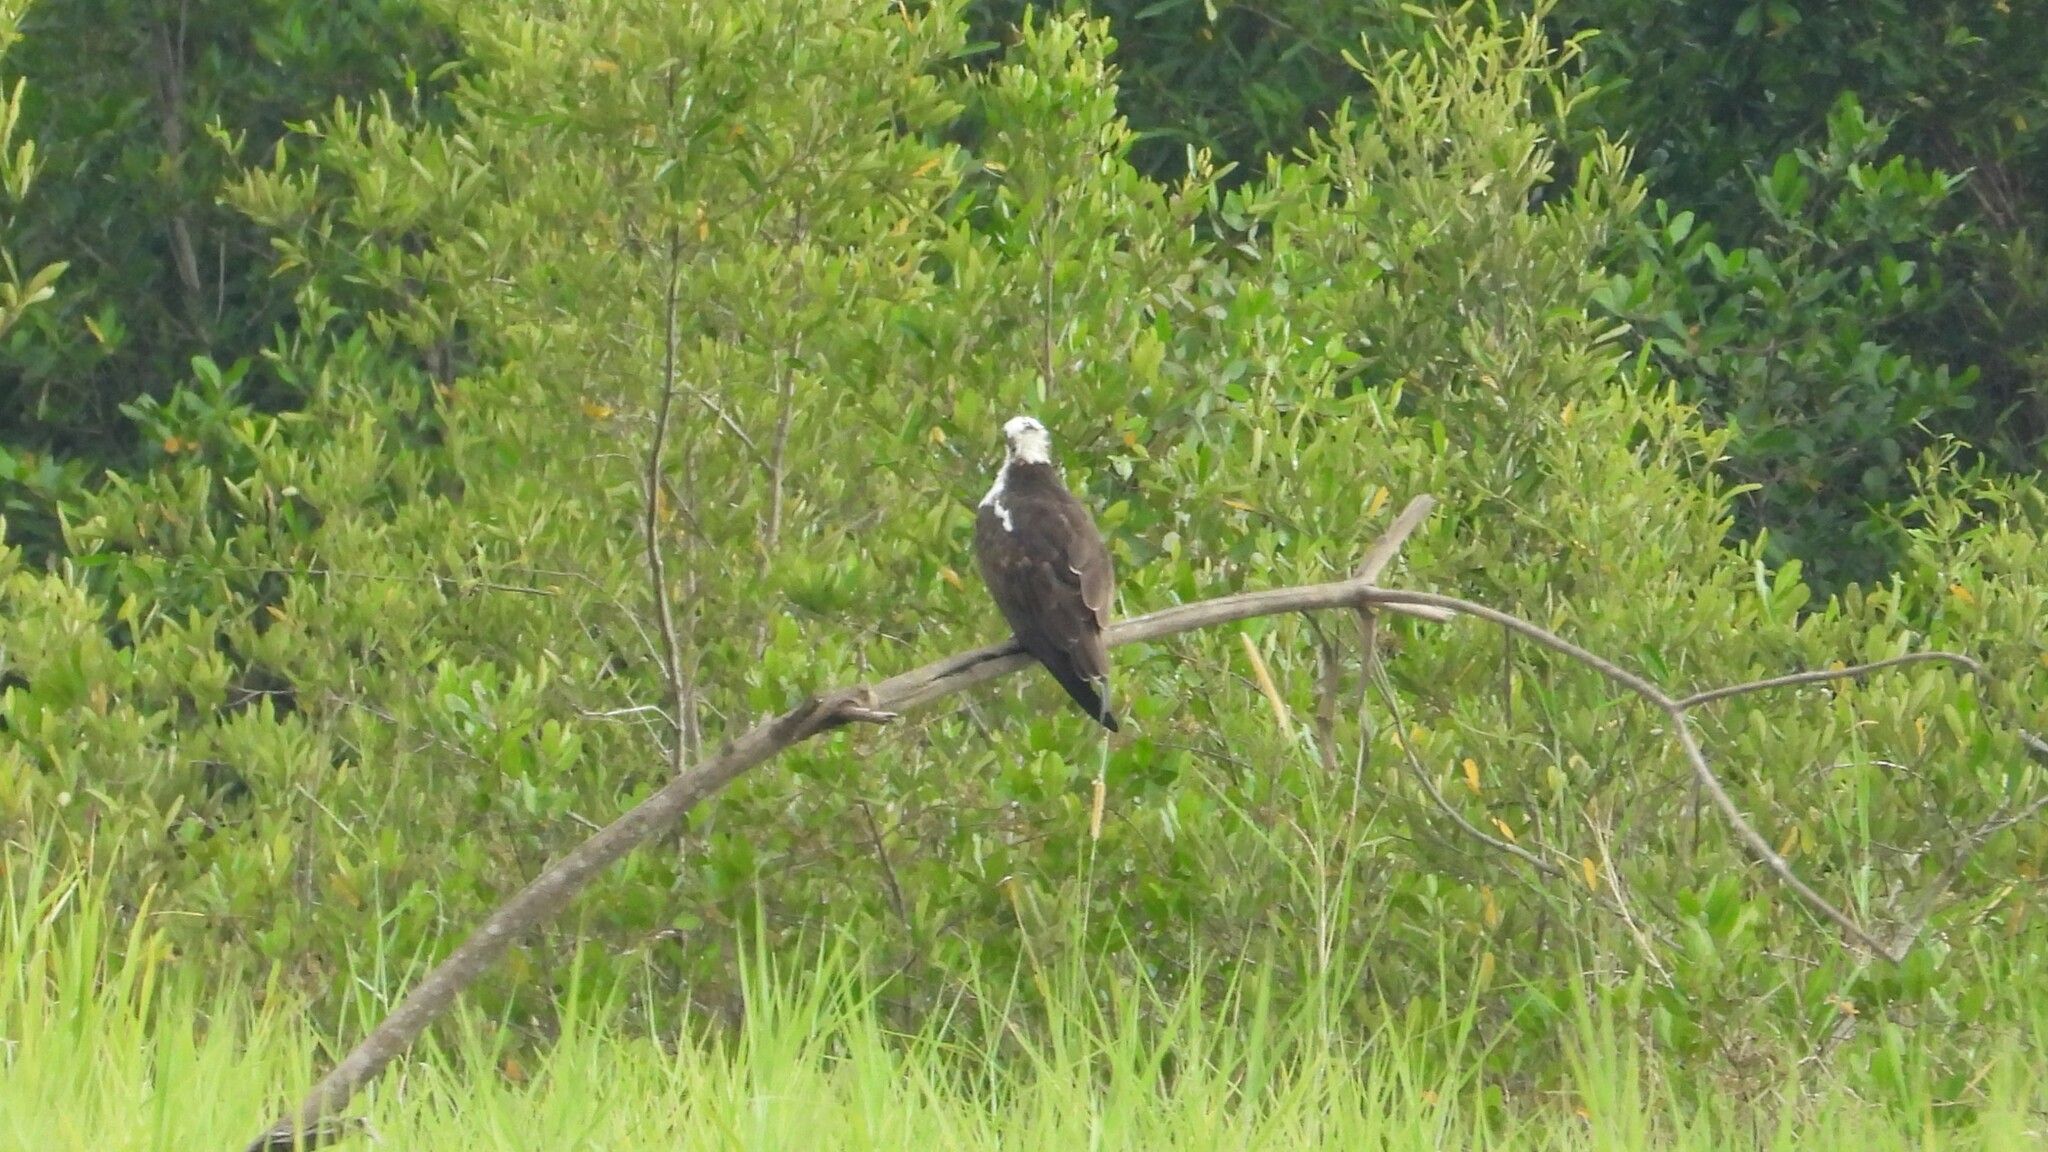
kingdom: Animalia
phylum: Chordata
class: Aves
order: Accipitriformes
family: Pandionidae
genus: Pandion
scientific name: Pandion haliaetus
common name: Osprey
